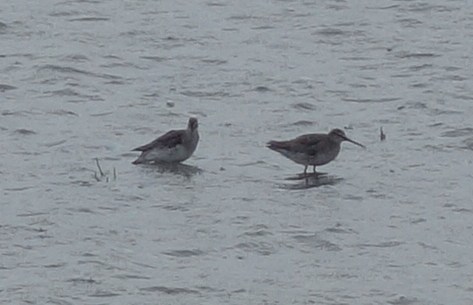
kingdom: Animalia
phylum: Chordata
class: Aves
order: Charadriiformes
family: Scolopacidae
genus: Tringa
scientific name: Tringa erythropus
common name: Spotted redshank
